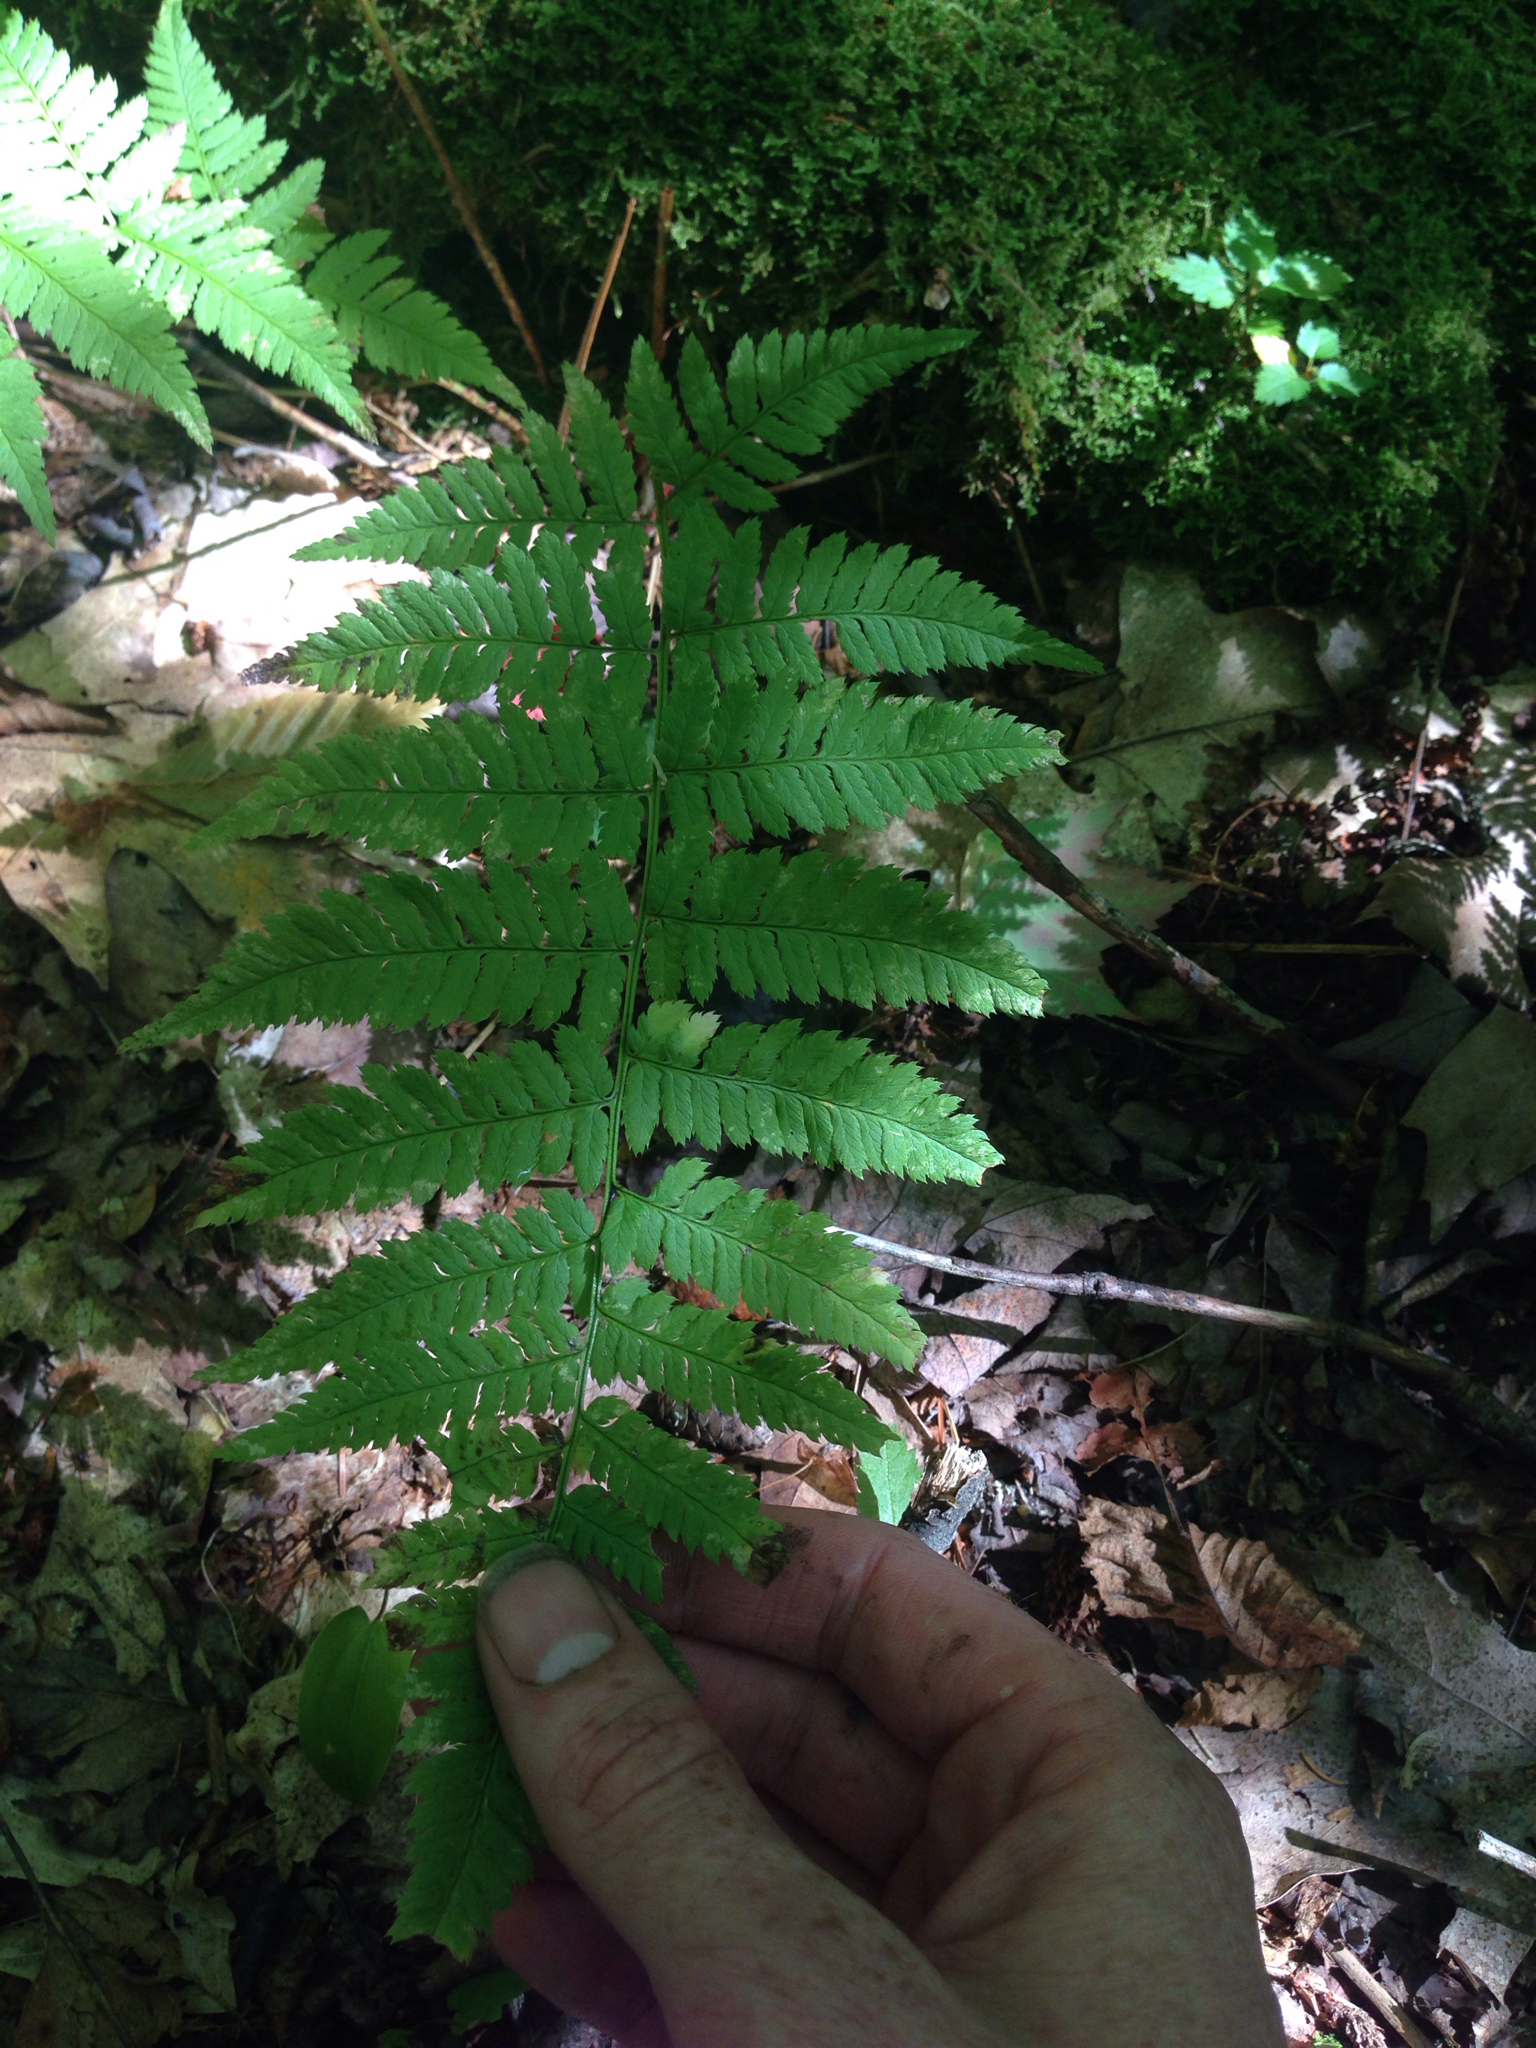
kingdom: Plantae
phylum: Tracheophyta
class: Polypodiopsida
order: Polypodiales
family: Dryopteridaceae
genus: Dryopteris
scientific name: Dryopteris carthusiana
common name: Narrow buckler-fern
